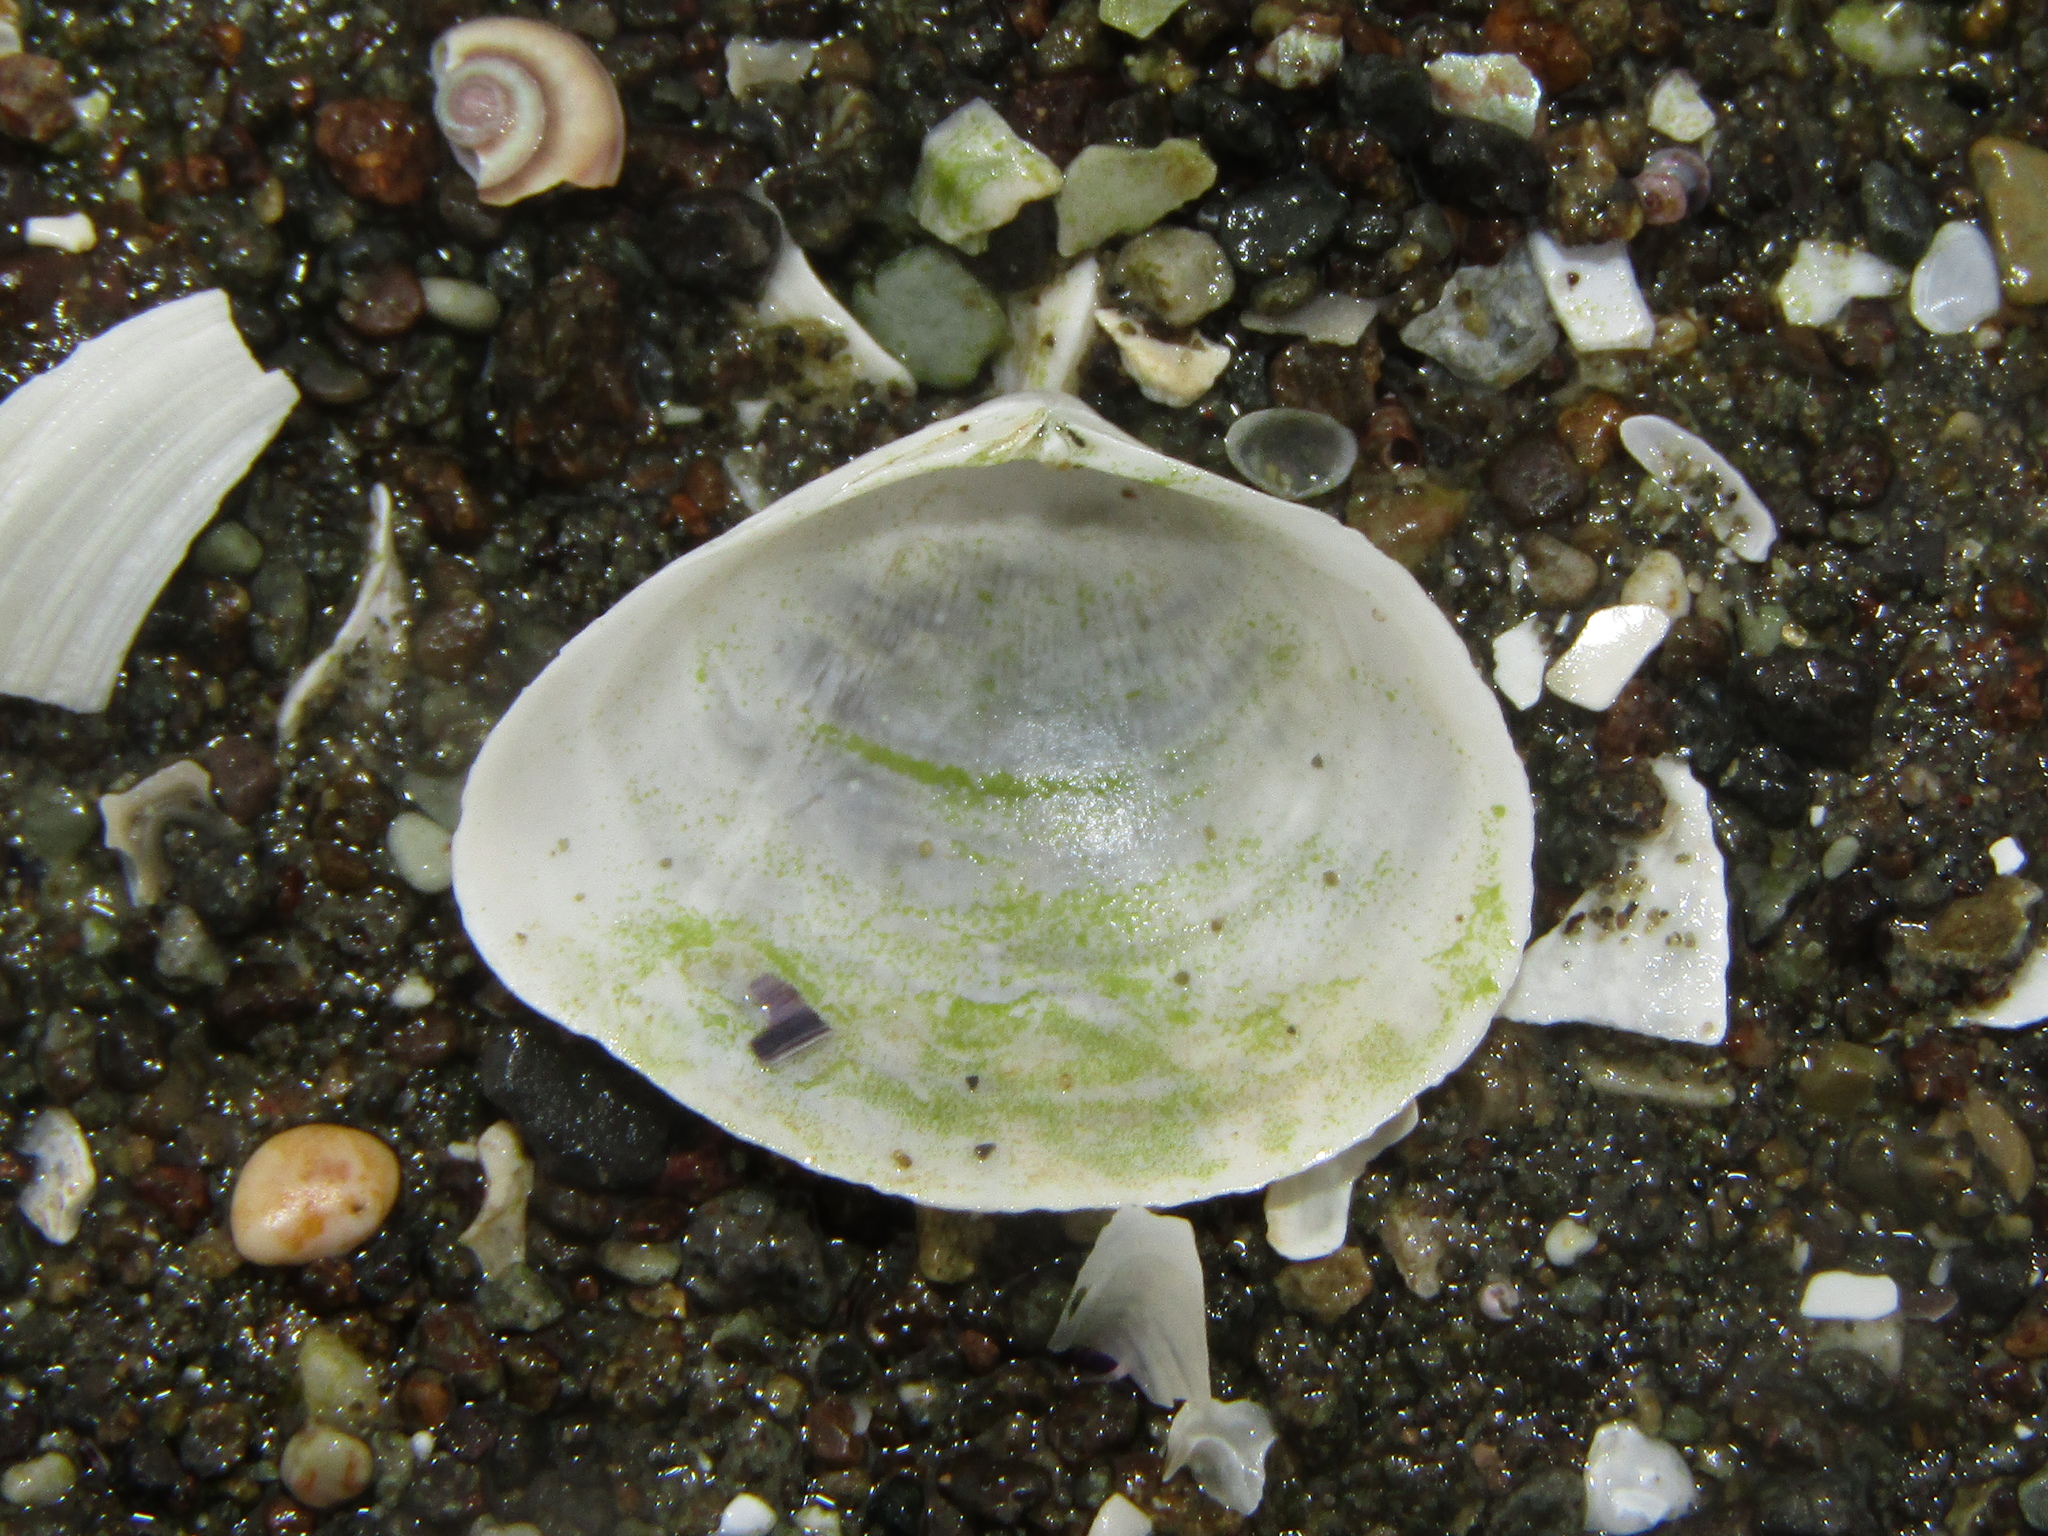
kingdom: Animalia
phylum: Mollusca
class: Bivalvia
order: Cardiida
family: Semelidae
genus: Leptomya
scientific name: Leptomya retiaria
